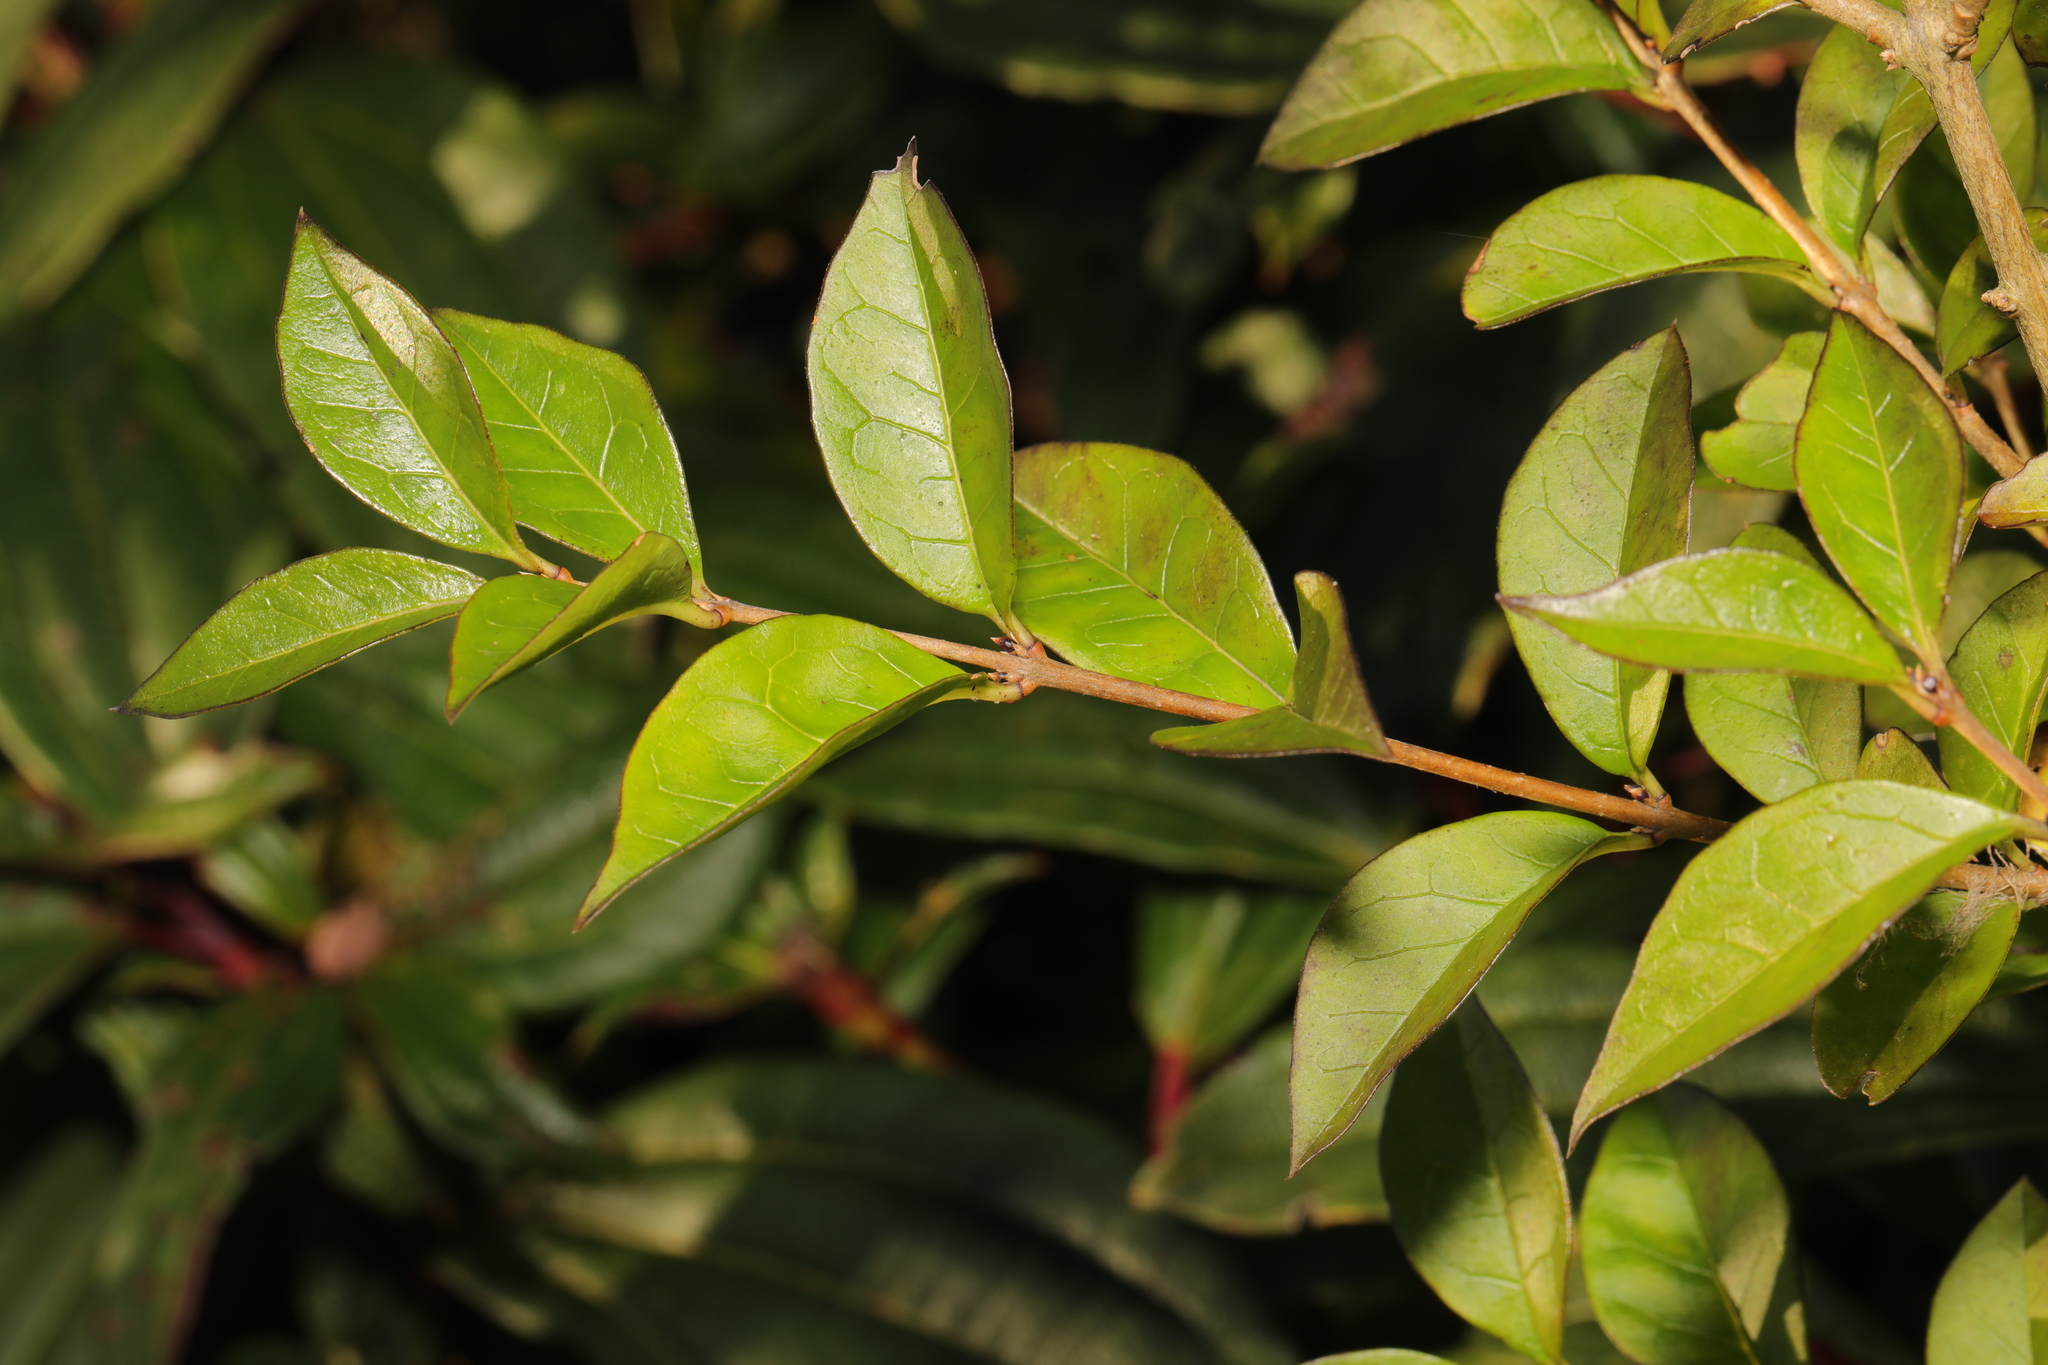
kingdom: Plantae
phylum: Tracheophyta
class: Magnoliopsida
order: Lamiales
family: Oleaceae
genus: Ligustrum
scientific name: Ligustrum ovalifolium
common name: California privet
